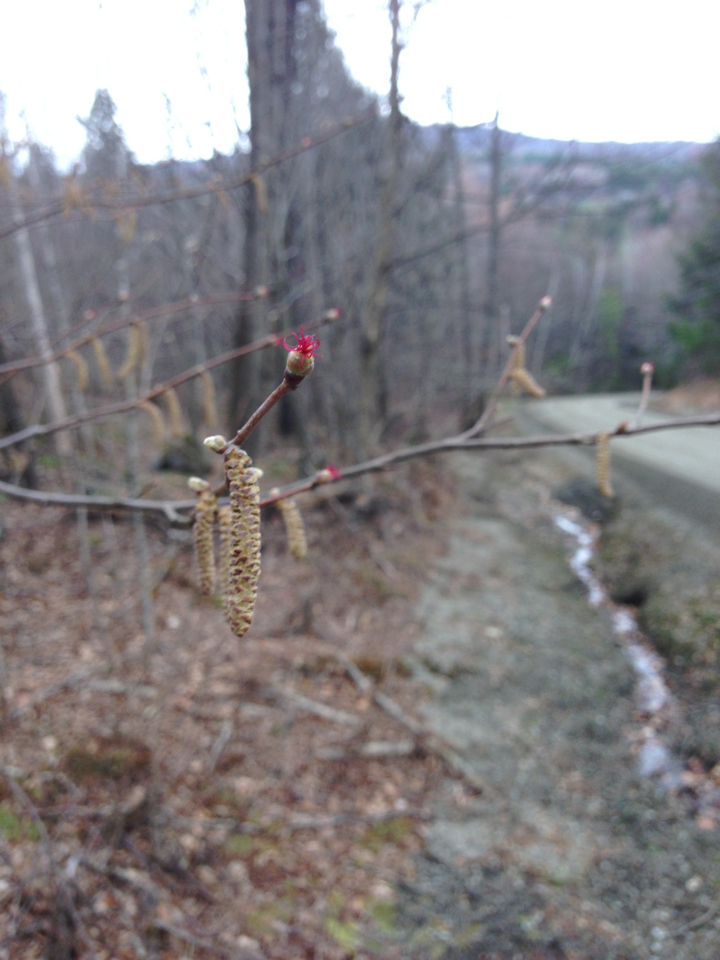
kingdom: Plantae
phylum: Tracheophyta
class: Magnoliopsida
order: Fagales
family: Betulaceae
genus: Corylus
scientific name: Corylus cornuta
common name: Beaked hazel
